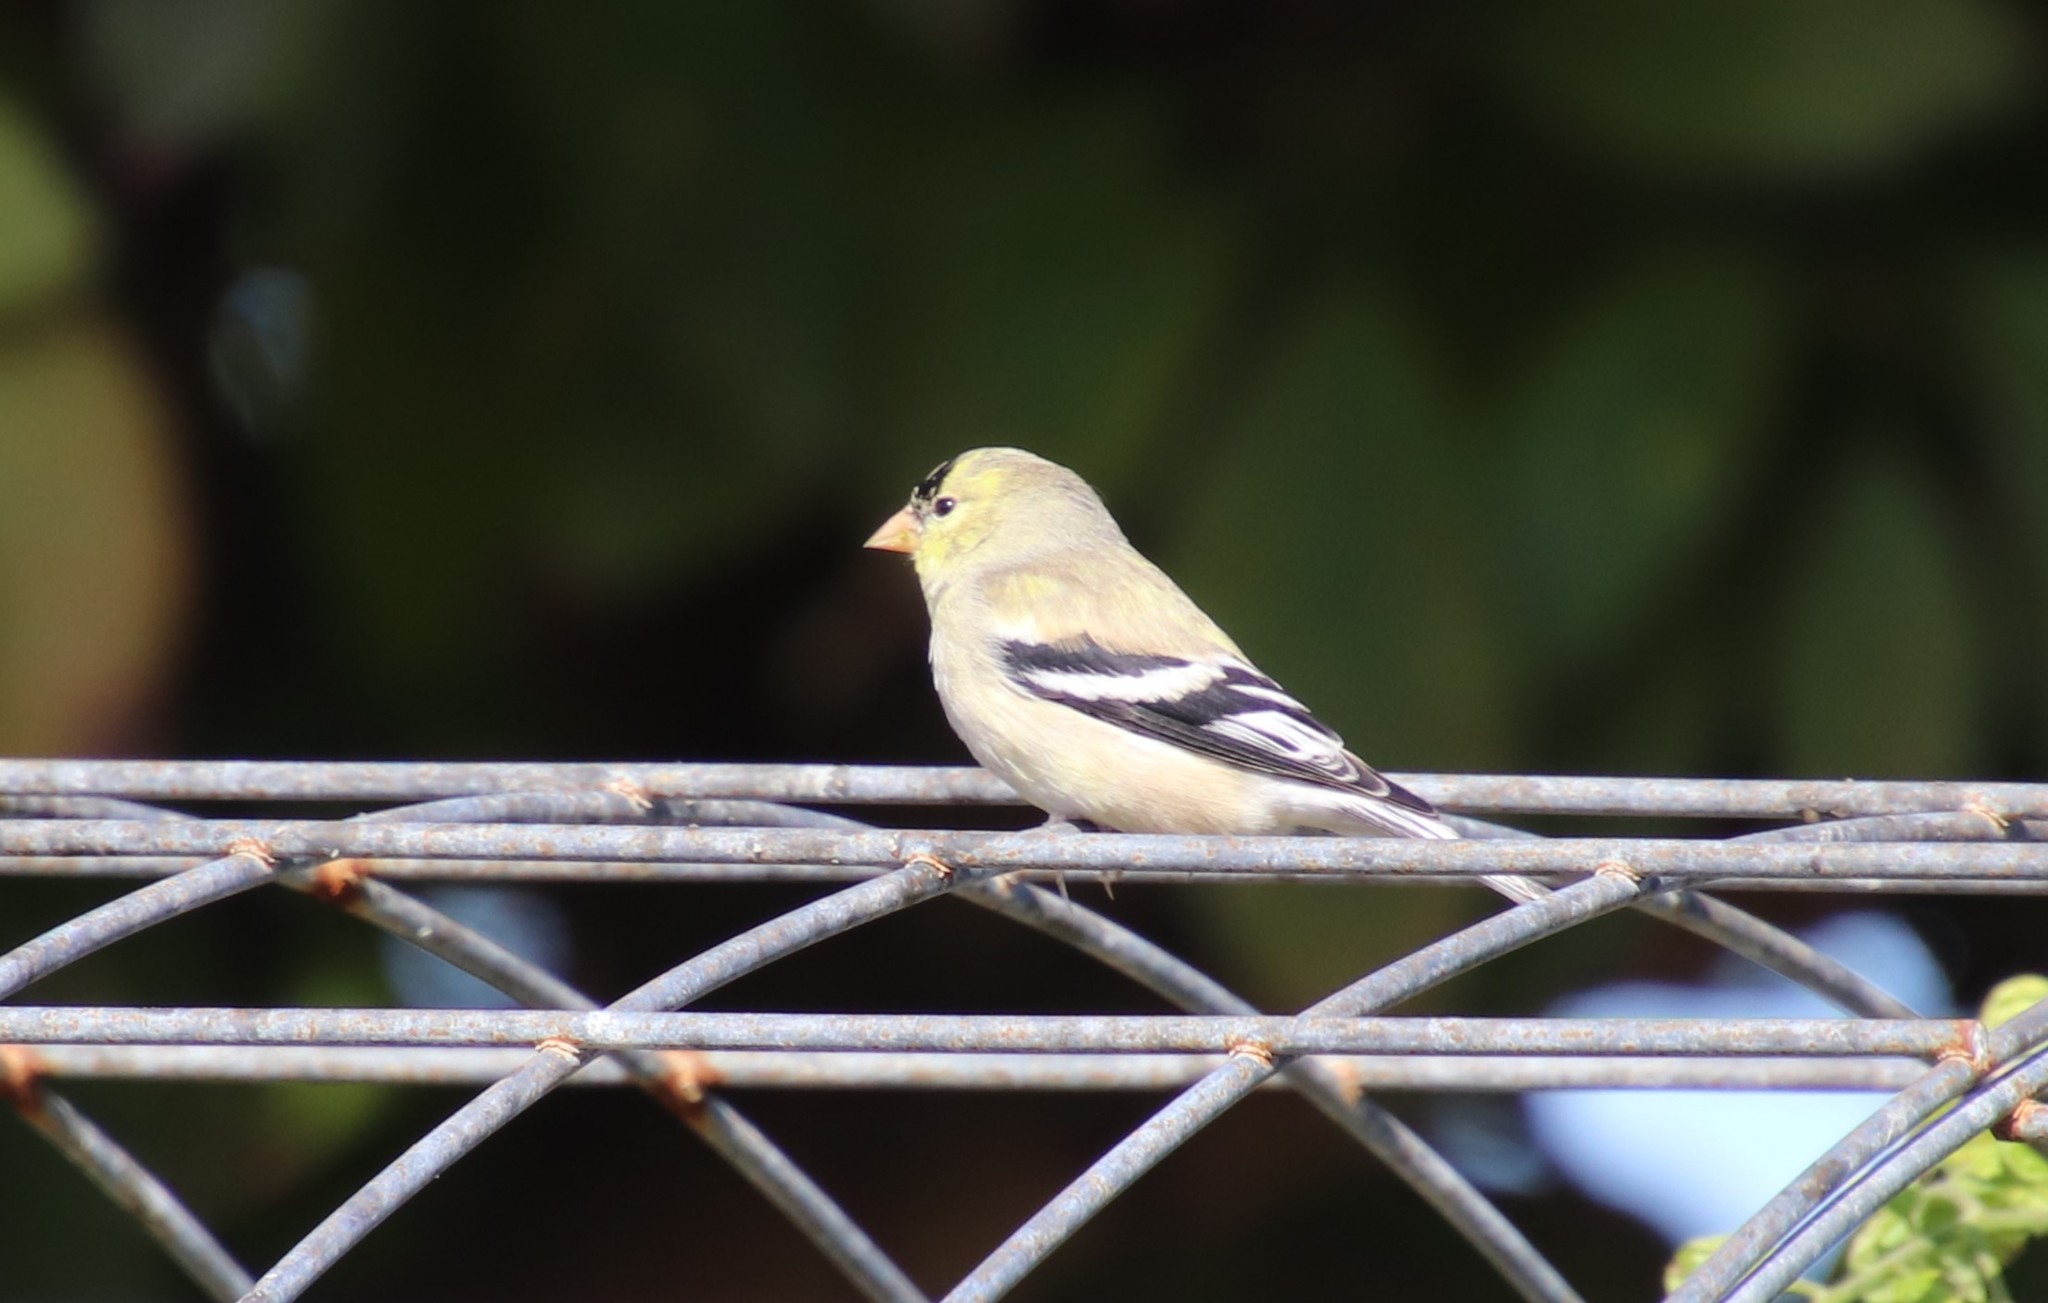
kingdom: Animalia
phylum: Chordata
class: Aves
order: Passeriformes
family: Fringillidae
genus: Spinus
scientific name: Spinus tristis
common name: American goldfinch
